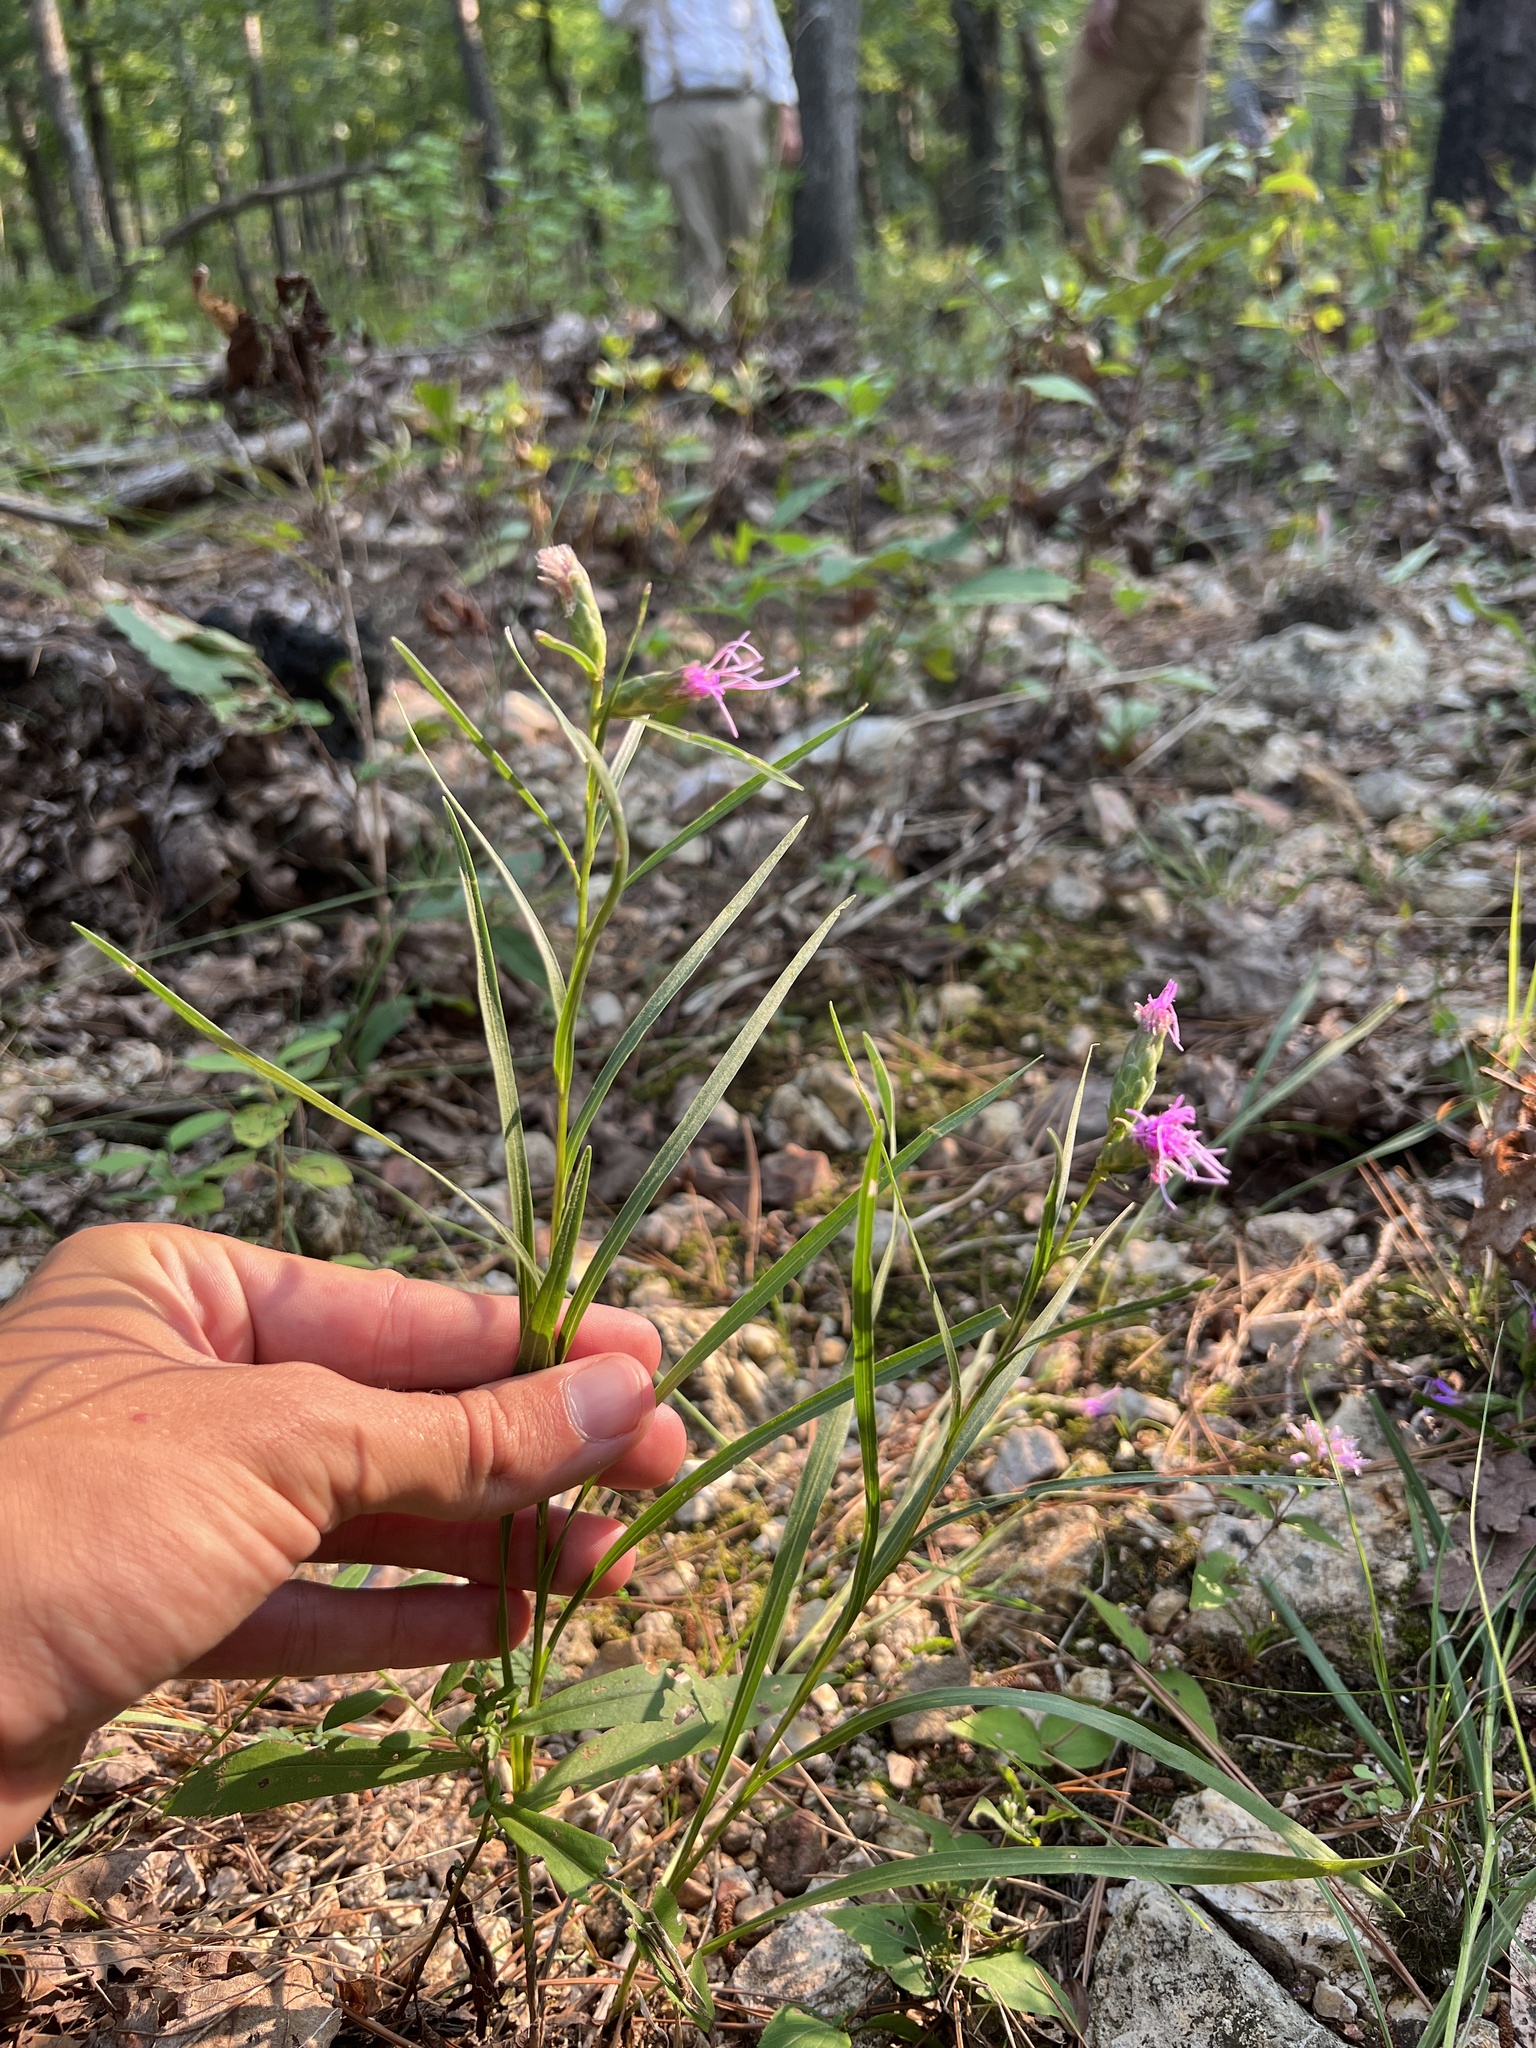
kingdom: Plantae
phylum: Tracheophyta
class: Magnoliopsida
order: Asterales
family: Asteraceae
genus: Liatris
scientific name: Liatris cylindracea
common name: Few-head blazingstar
